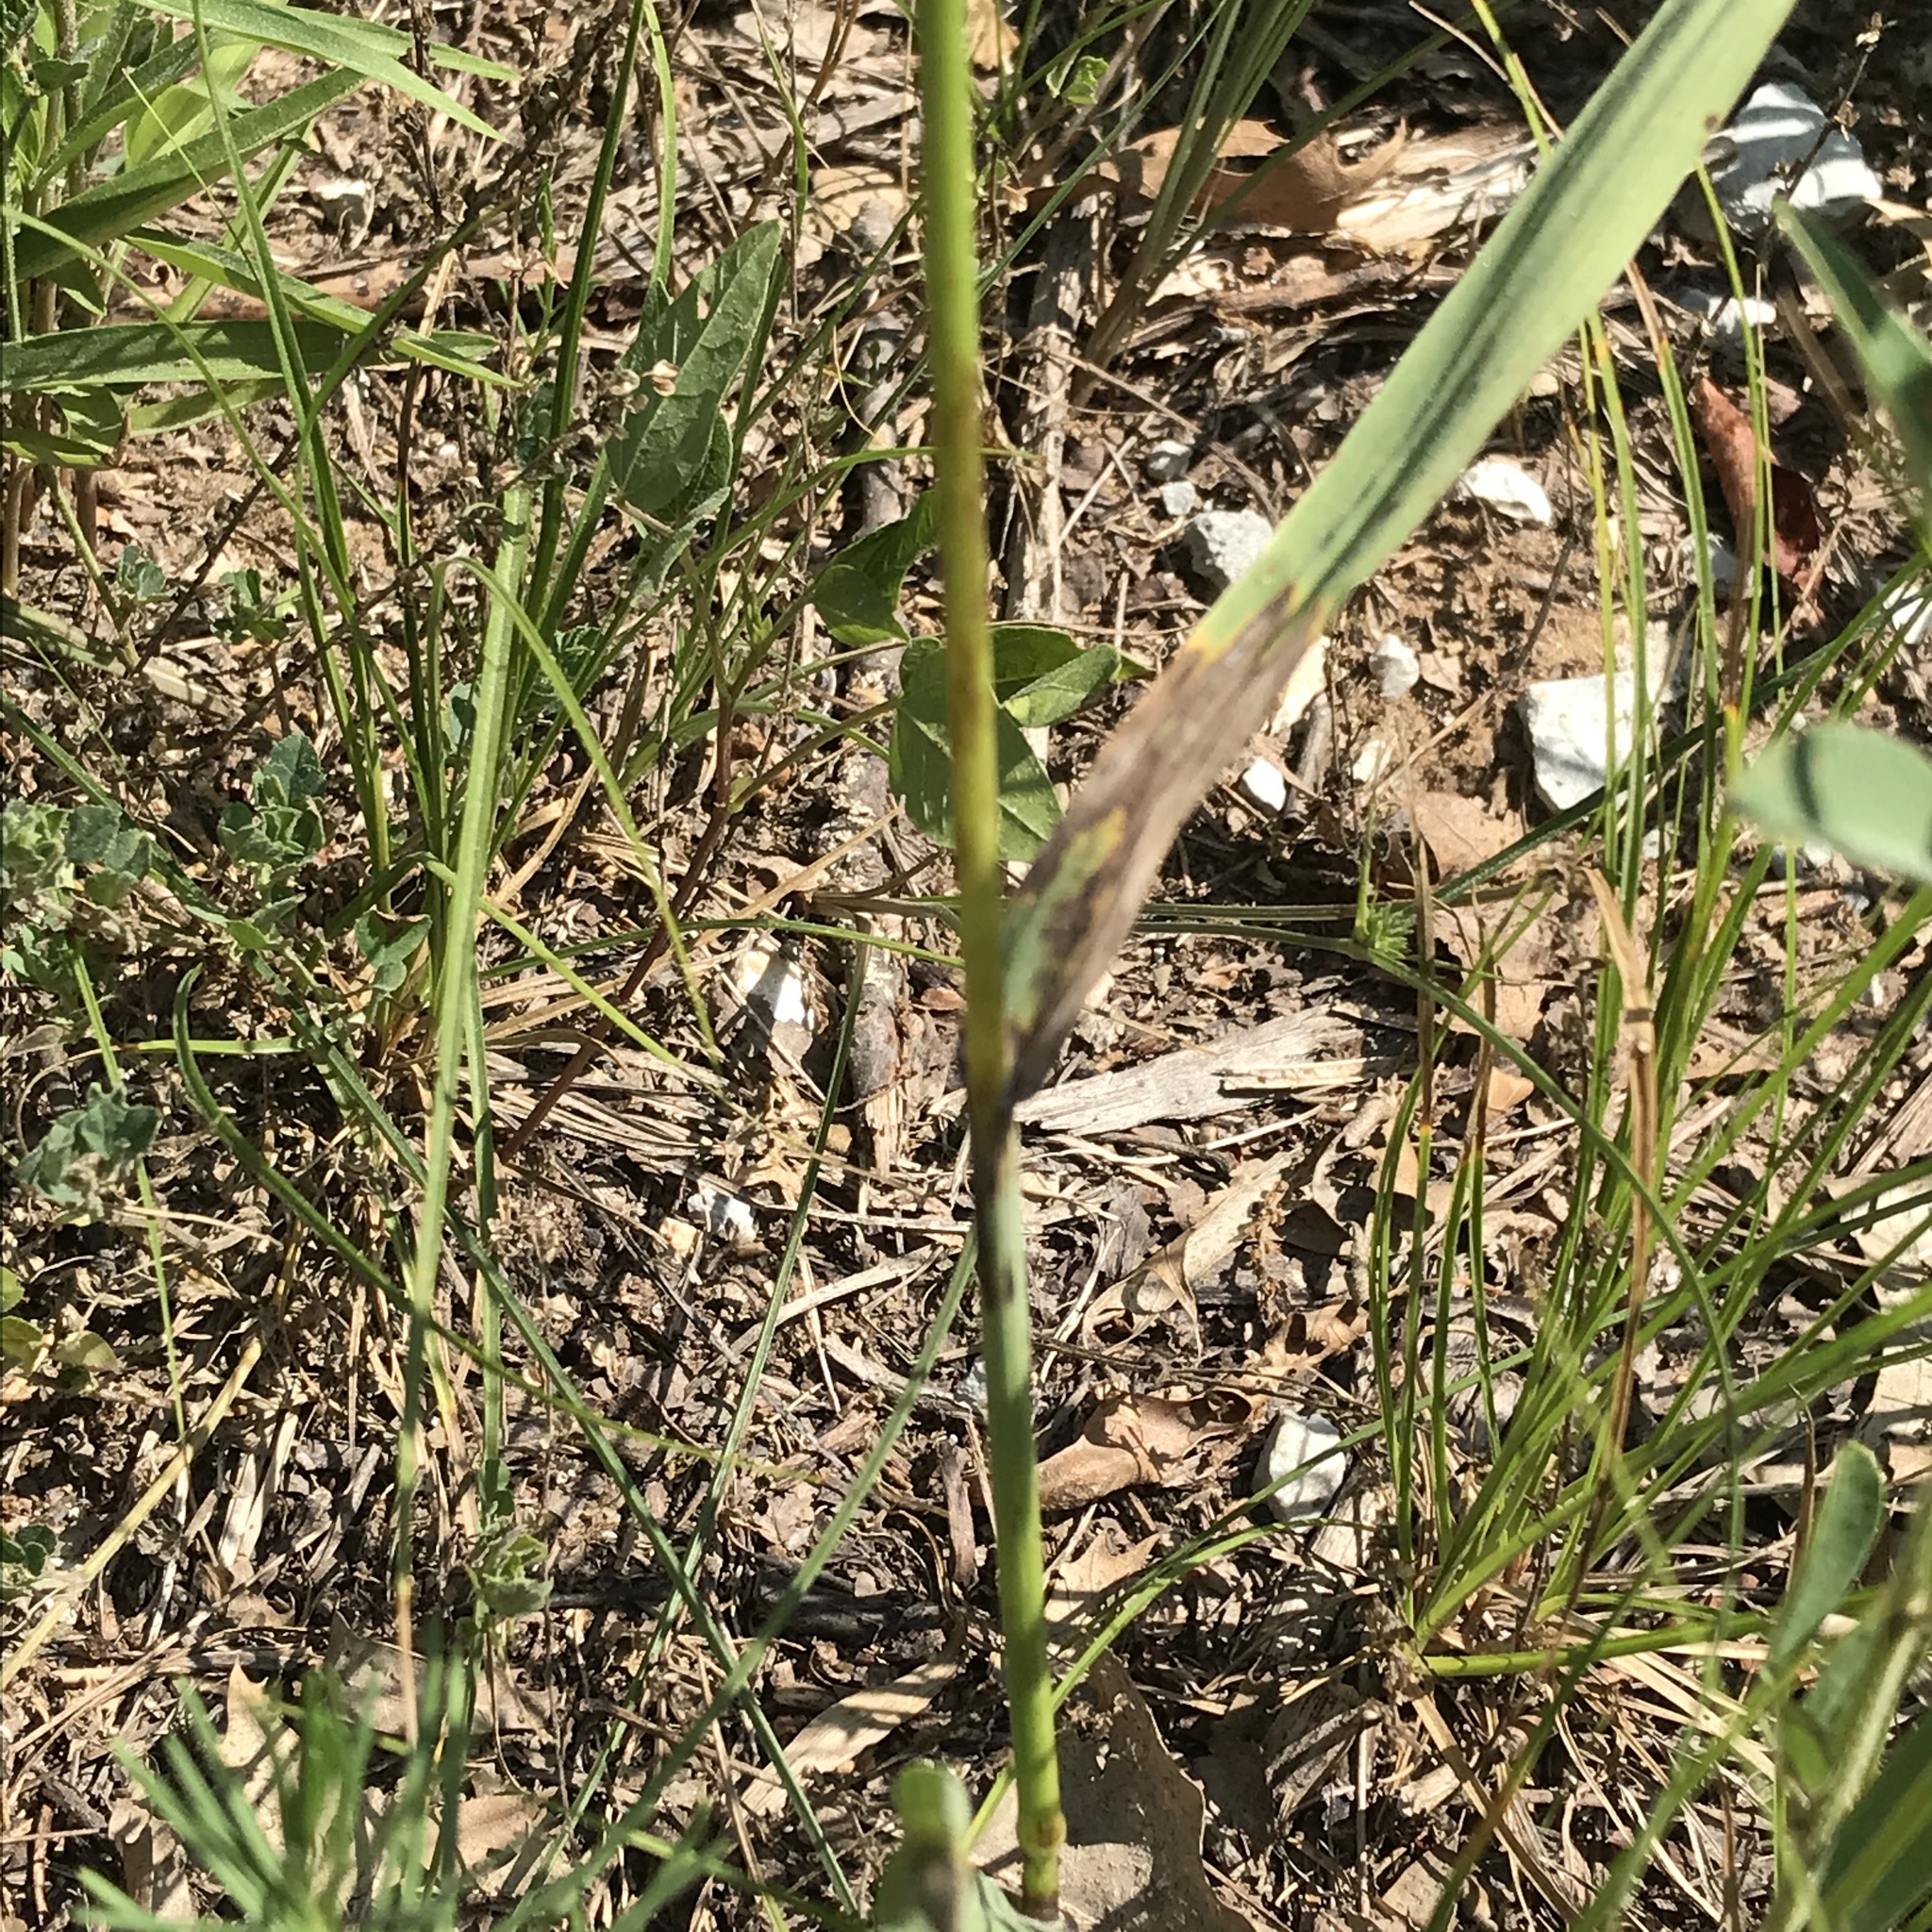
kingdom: Plantae
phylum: Tracheophyta
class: Liliopsida
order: Poales
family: Poaceae
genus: Bromus
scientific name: Bromus inermis
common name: Smooth brome
